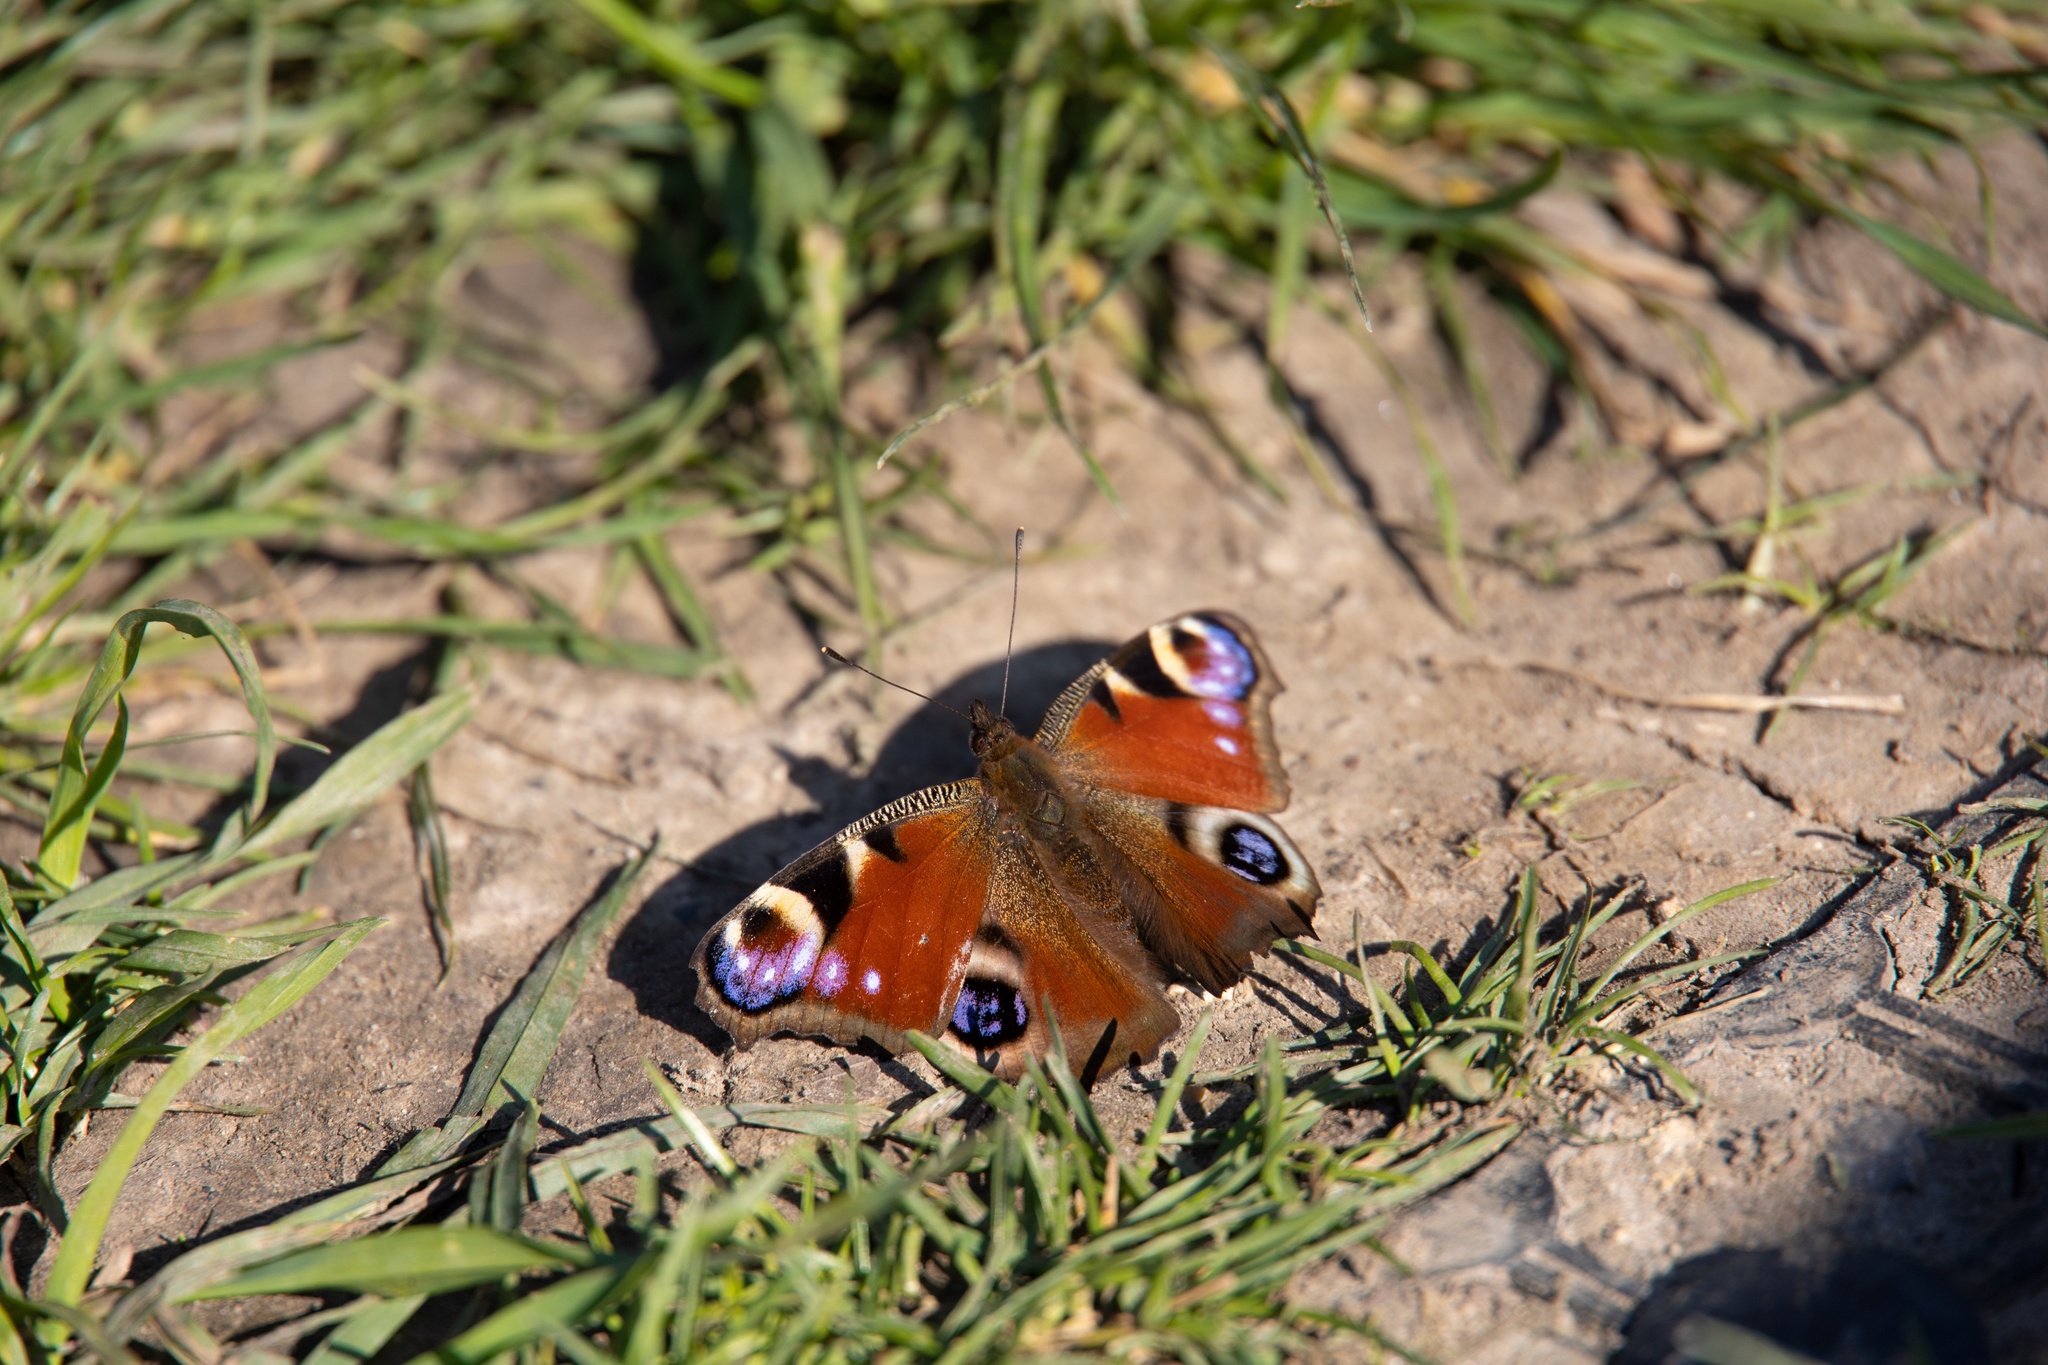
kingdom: Animalia
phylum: Arthropoda
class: Insecta
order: Lepidoptera
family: Nymphalidae
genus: Aglais
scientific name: Aglais io
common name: Peacock
